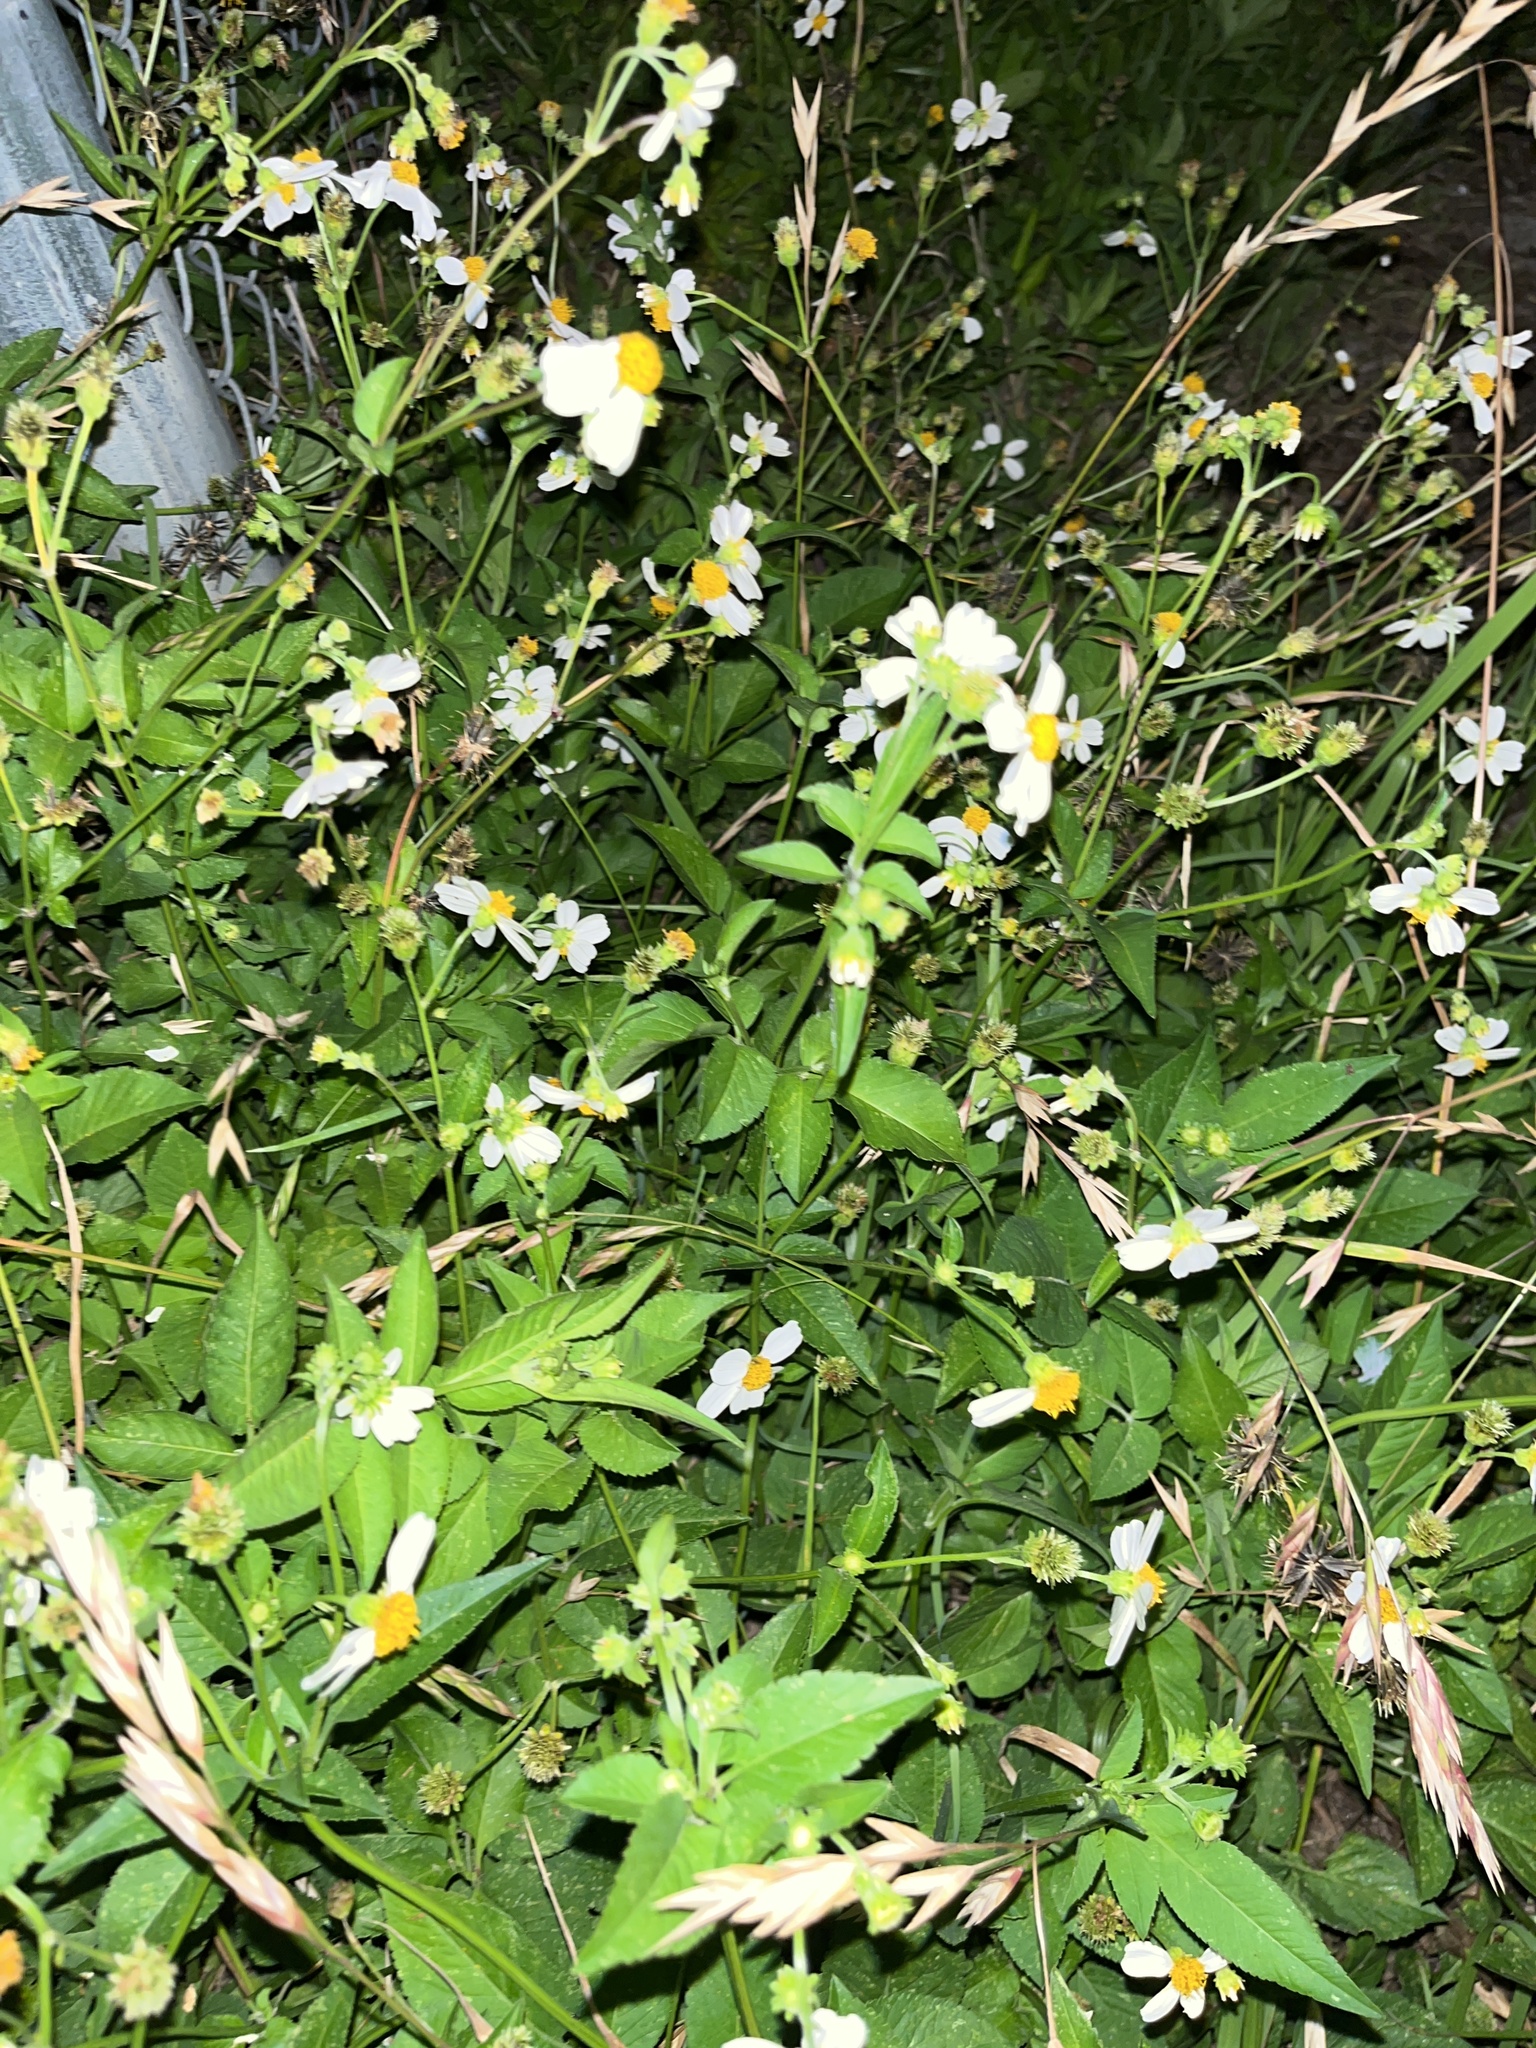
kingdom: Plantae
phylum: Tracheophyta
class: Magnoliopsida
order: Asterales
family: Asteraceae
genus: Bidens
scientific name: Bidens alba
